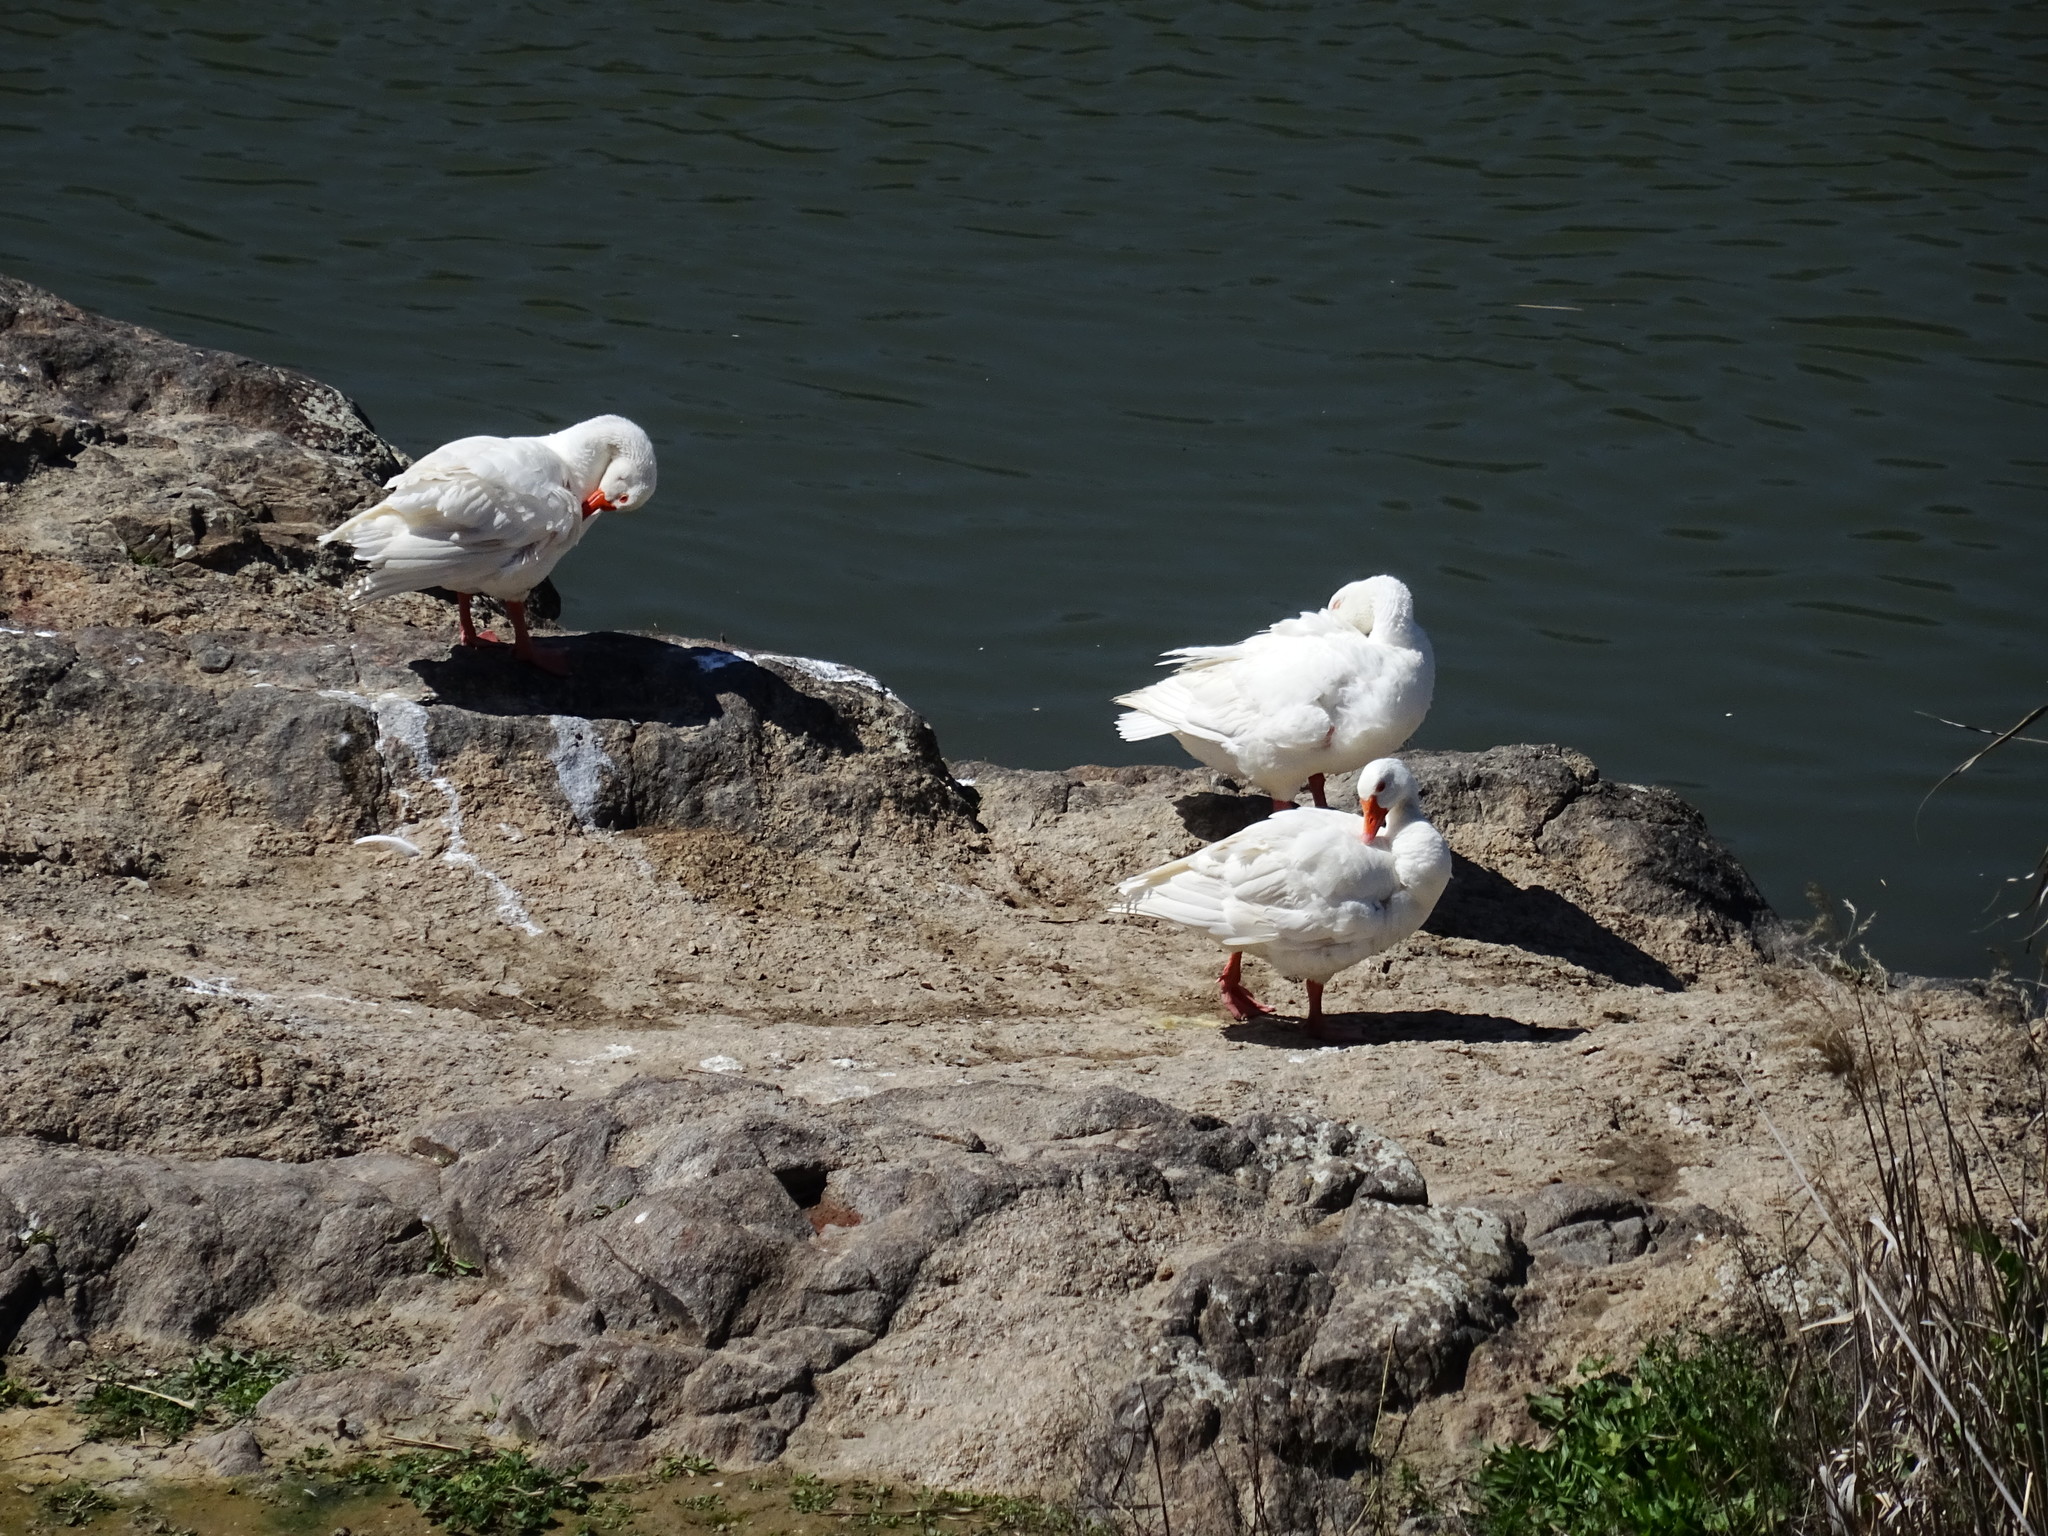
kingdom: Animalia
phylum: Chordata
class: Aves
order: Anseriformes
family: Anatidae
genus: Anser
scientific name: Anser anser
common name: Greylag goose
